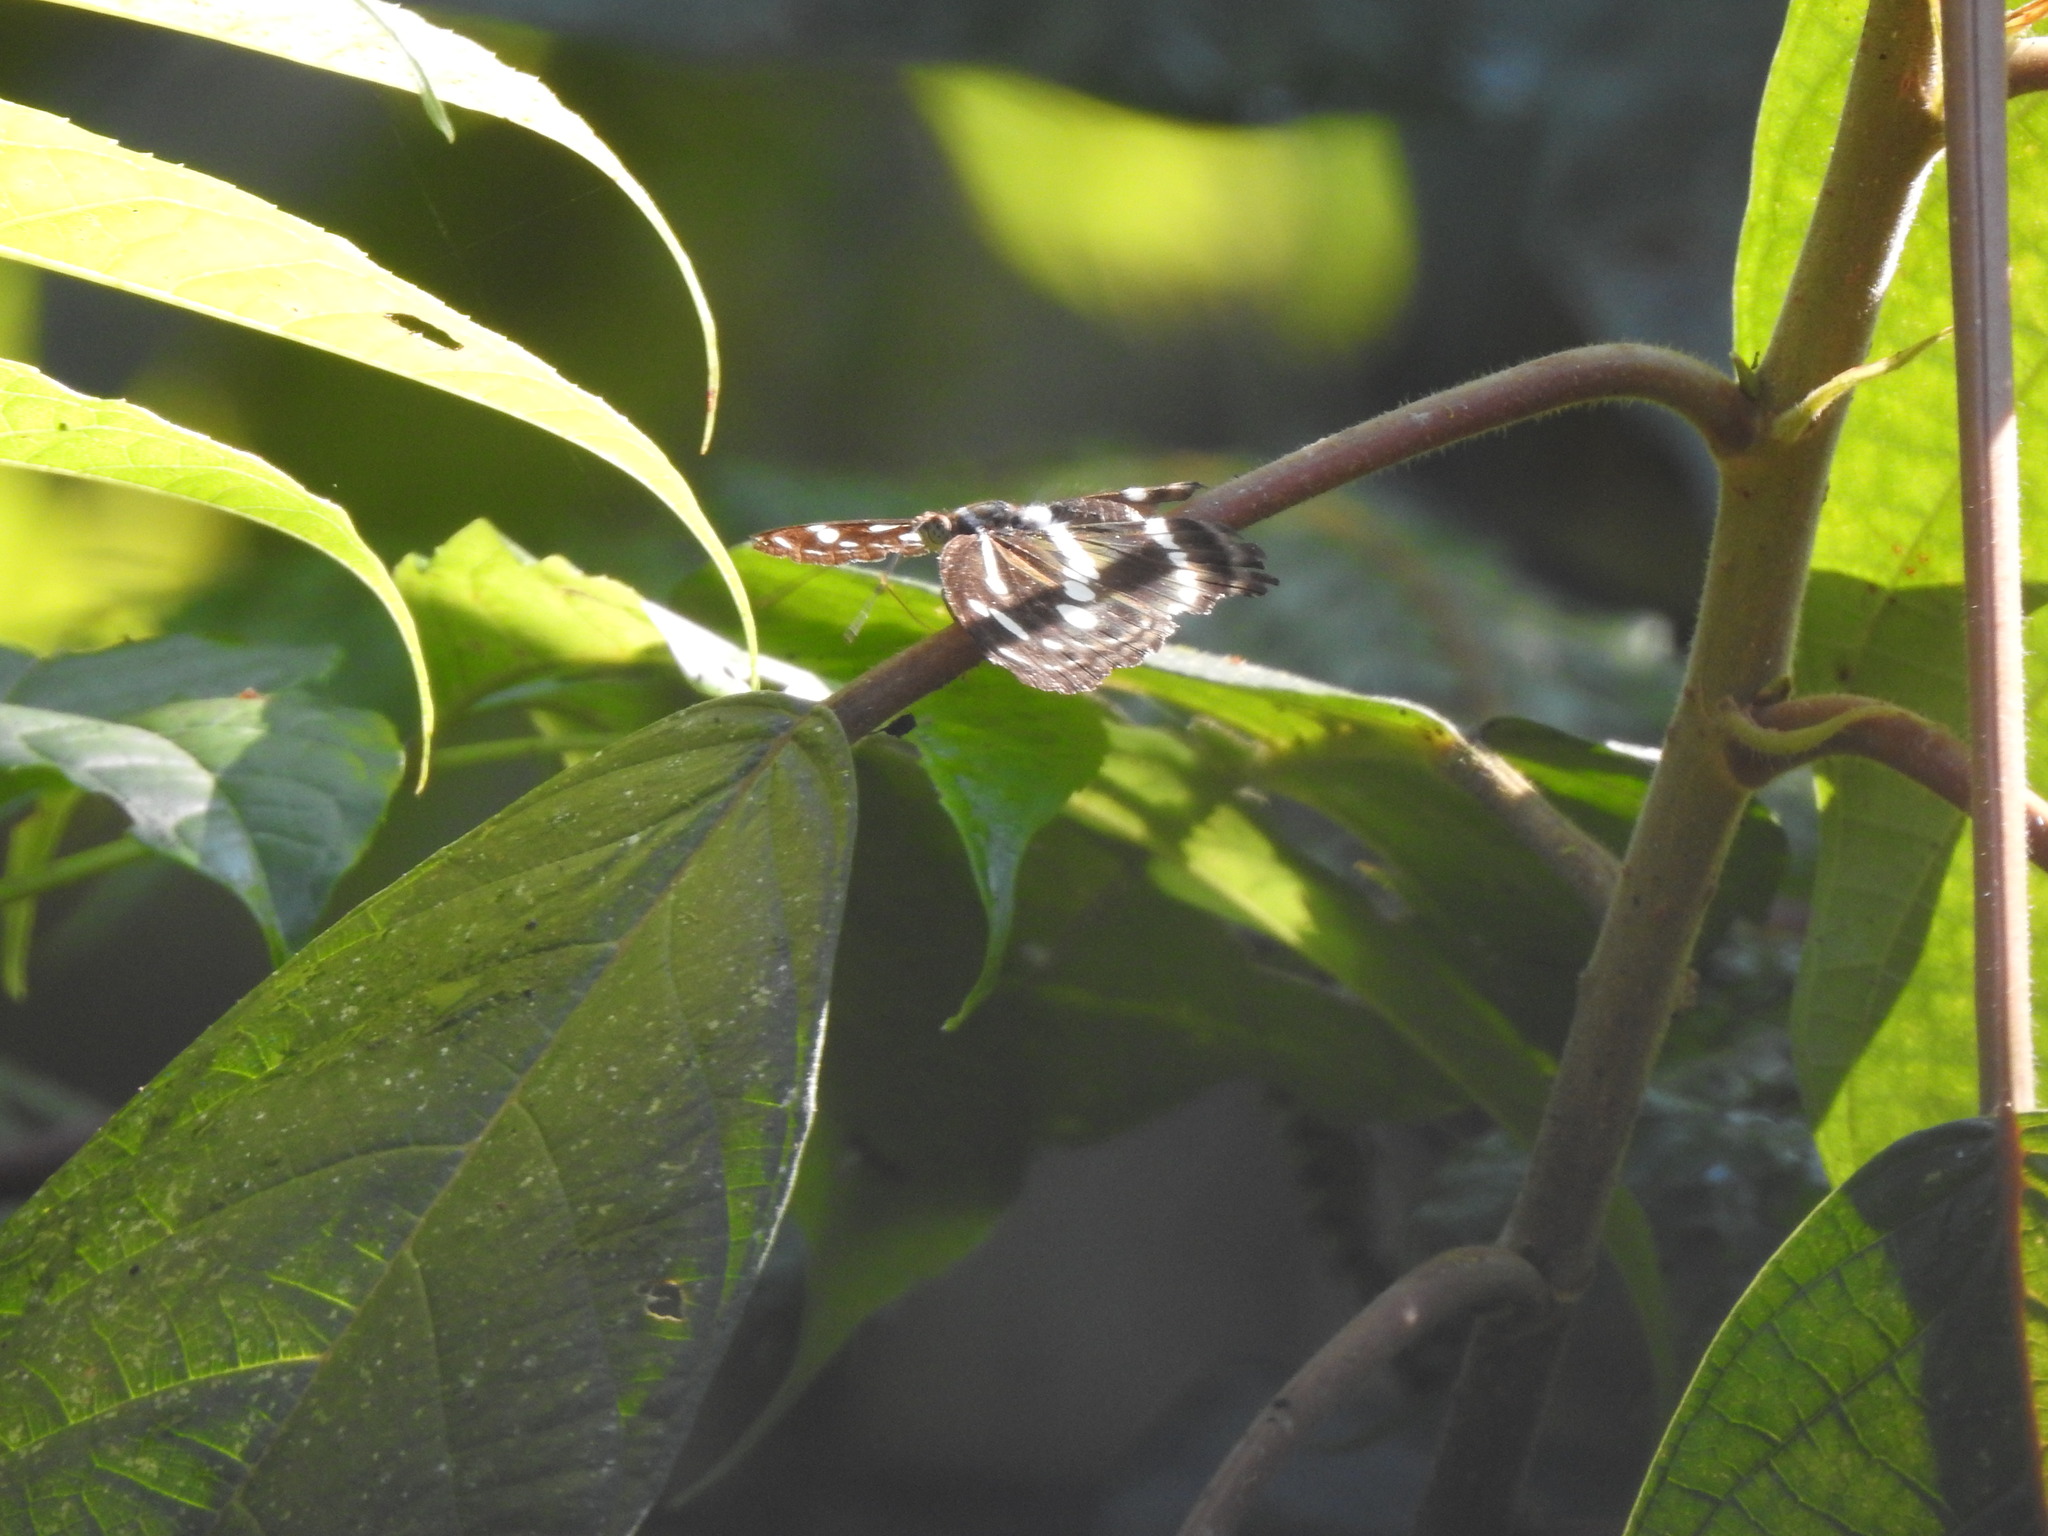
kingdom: Animalia
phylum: Arthropoda
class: Insecta
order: Lepidoptera
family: Nymphalidae
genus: Parathyma
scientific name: Parathyma pravara
